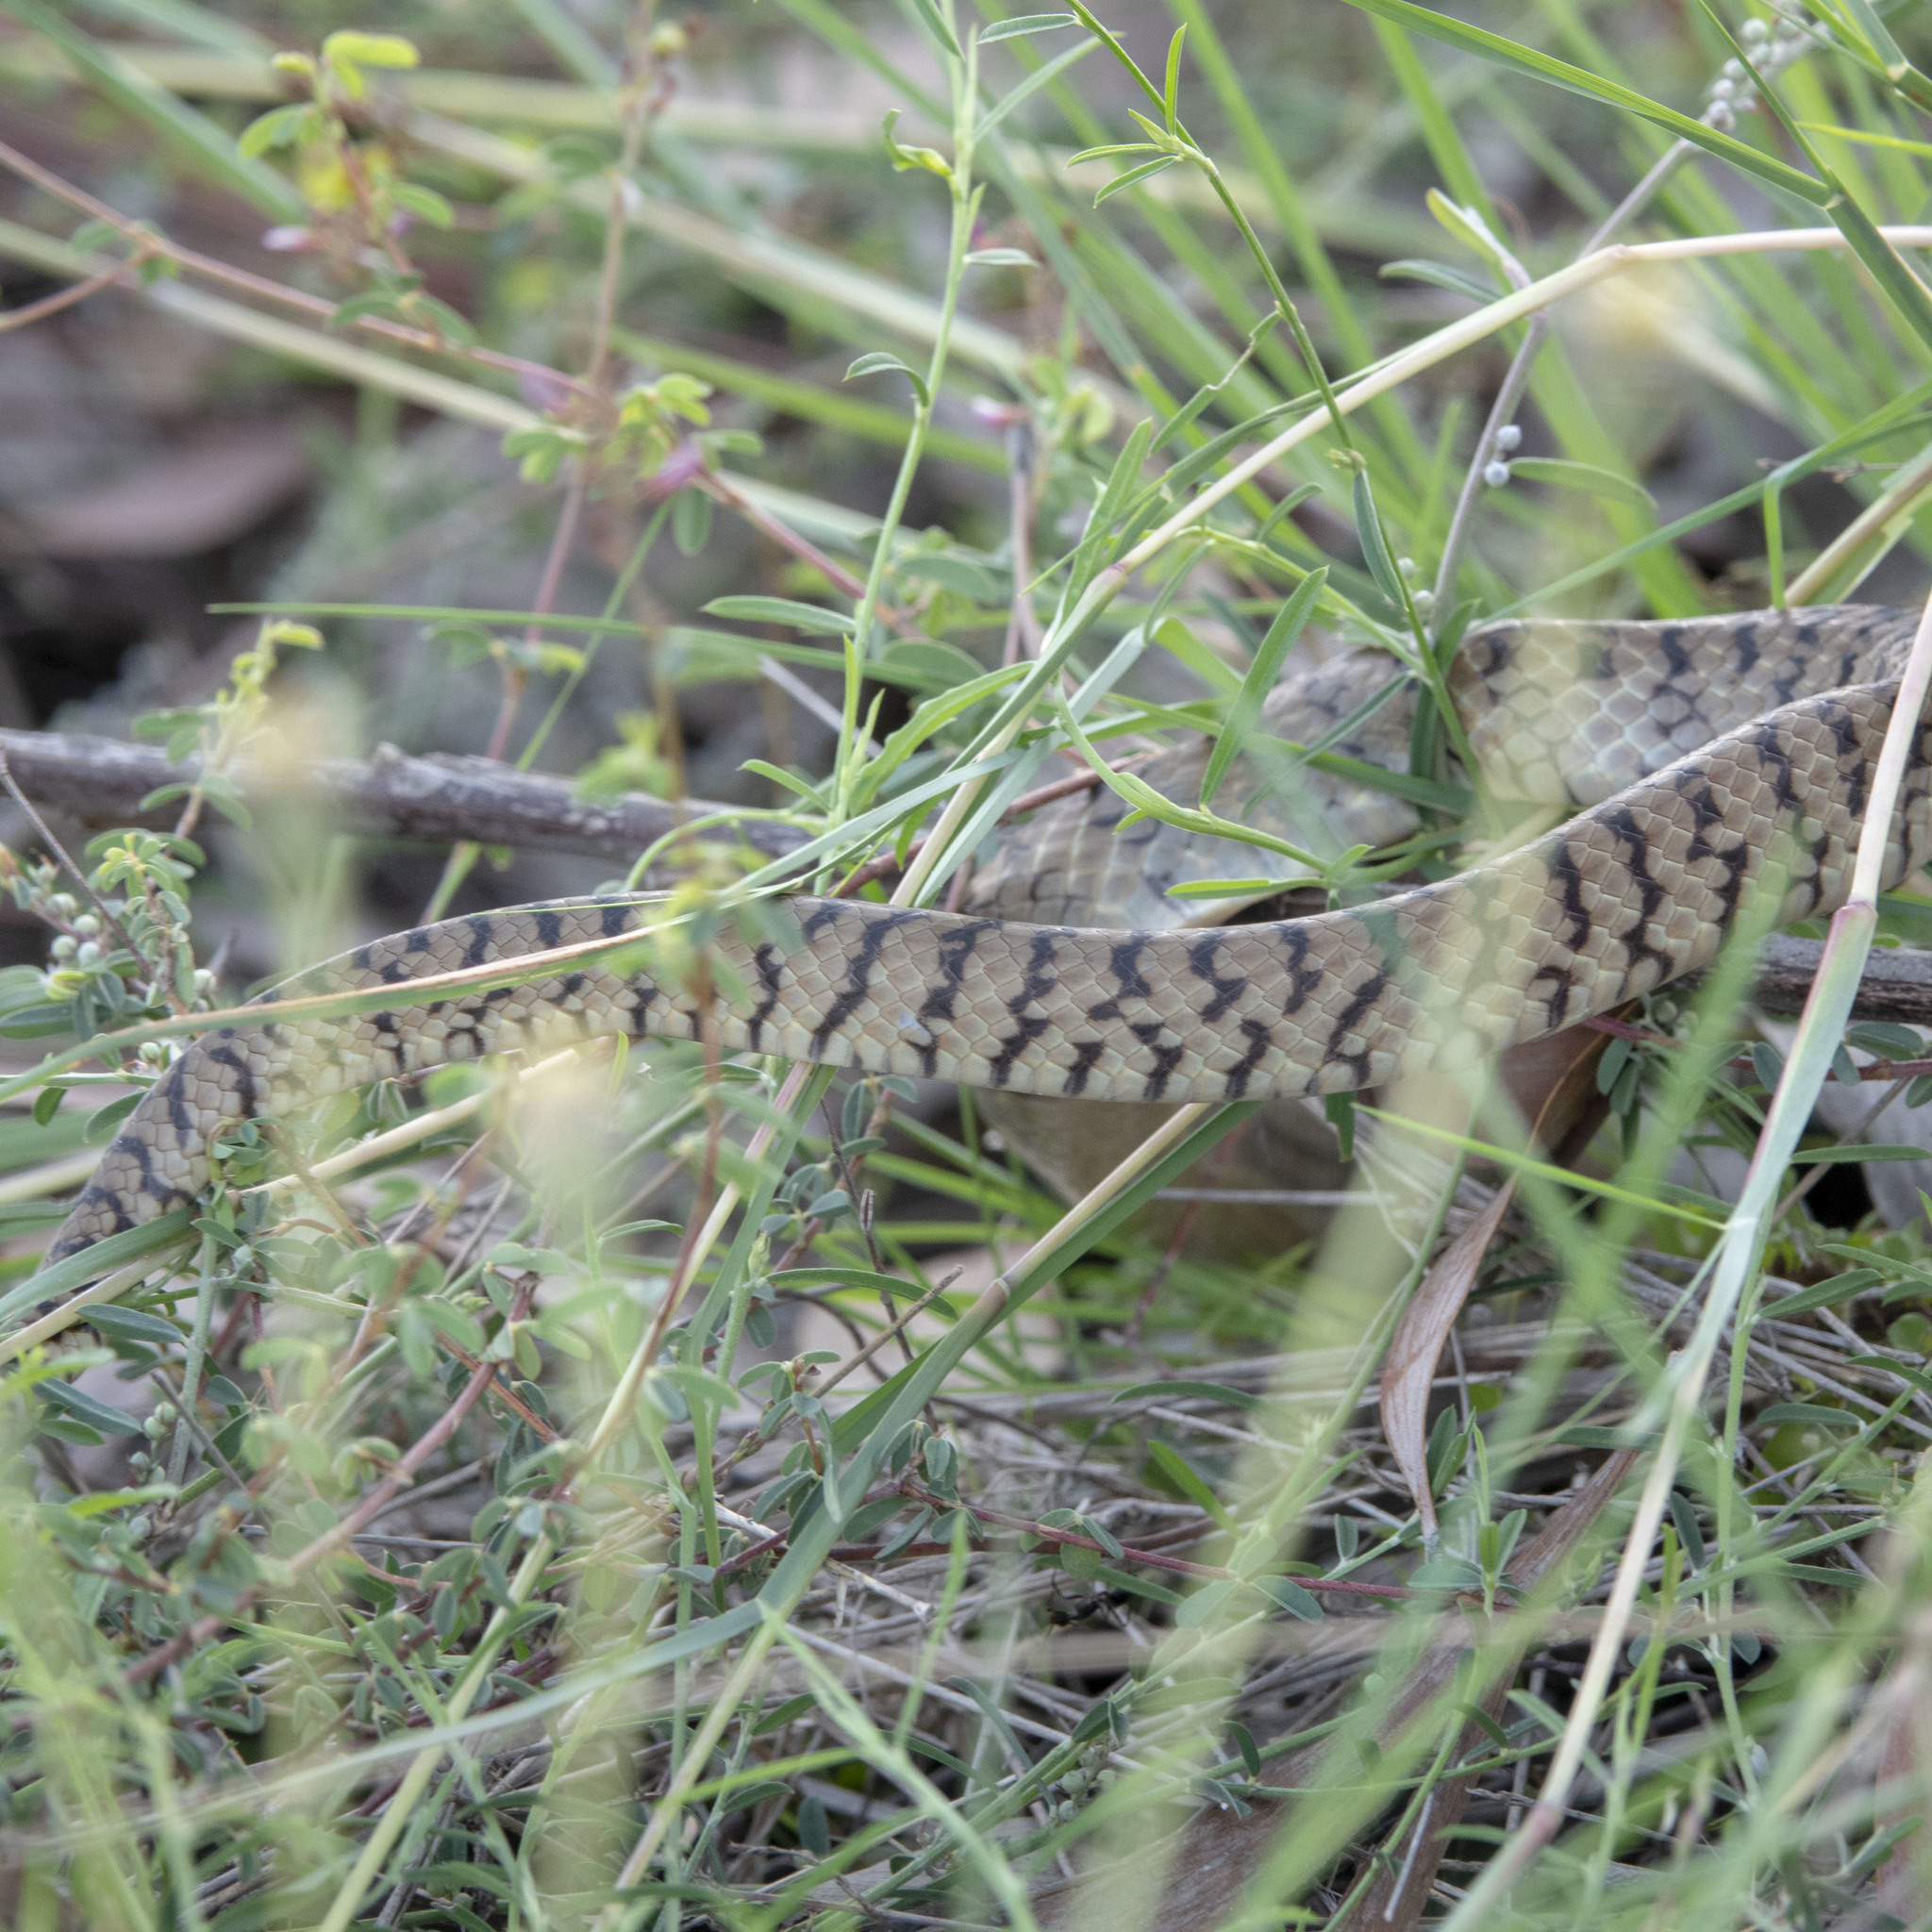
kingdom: Animalia
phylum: Chordata
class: Squamata
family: Colubridae
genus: Ptyas
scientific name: Ptyas mucosa
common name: Oriental ratsnake
